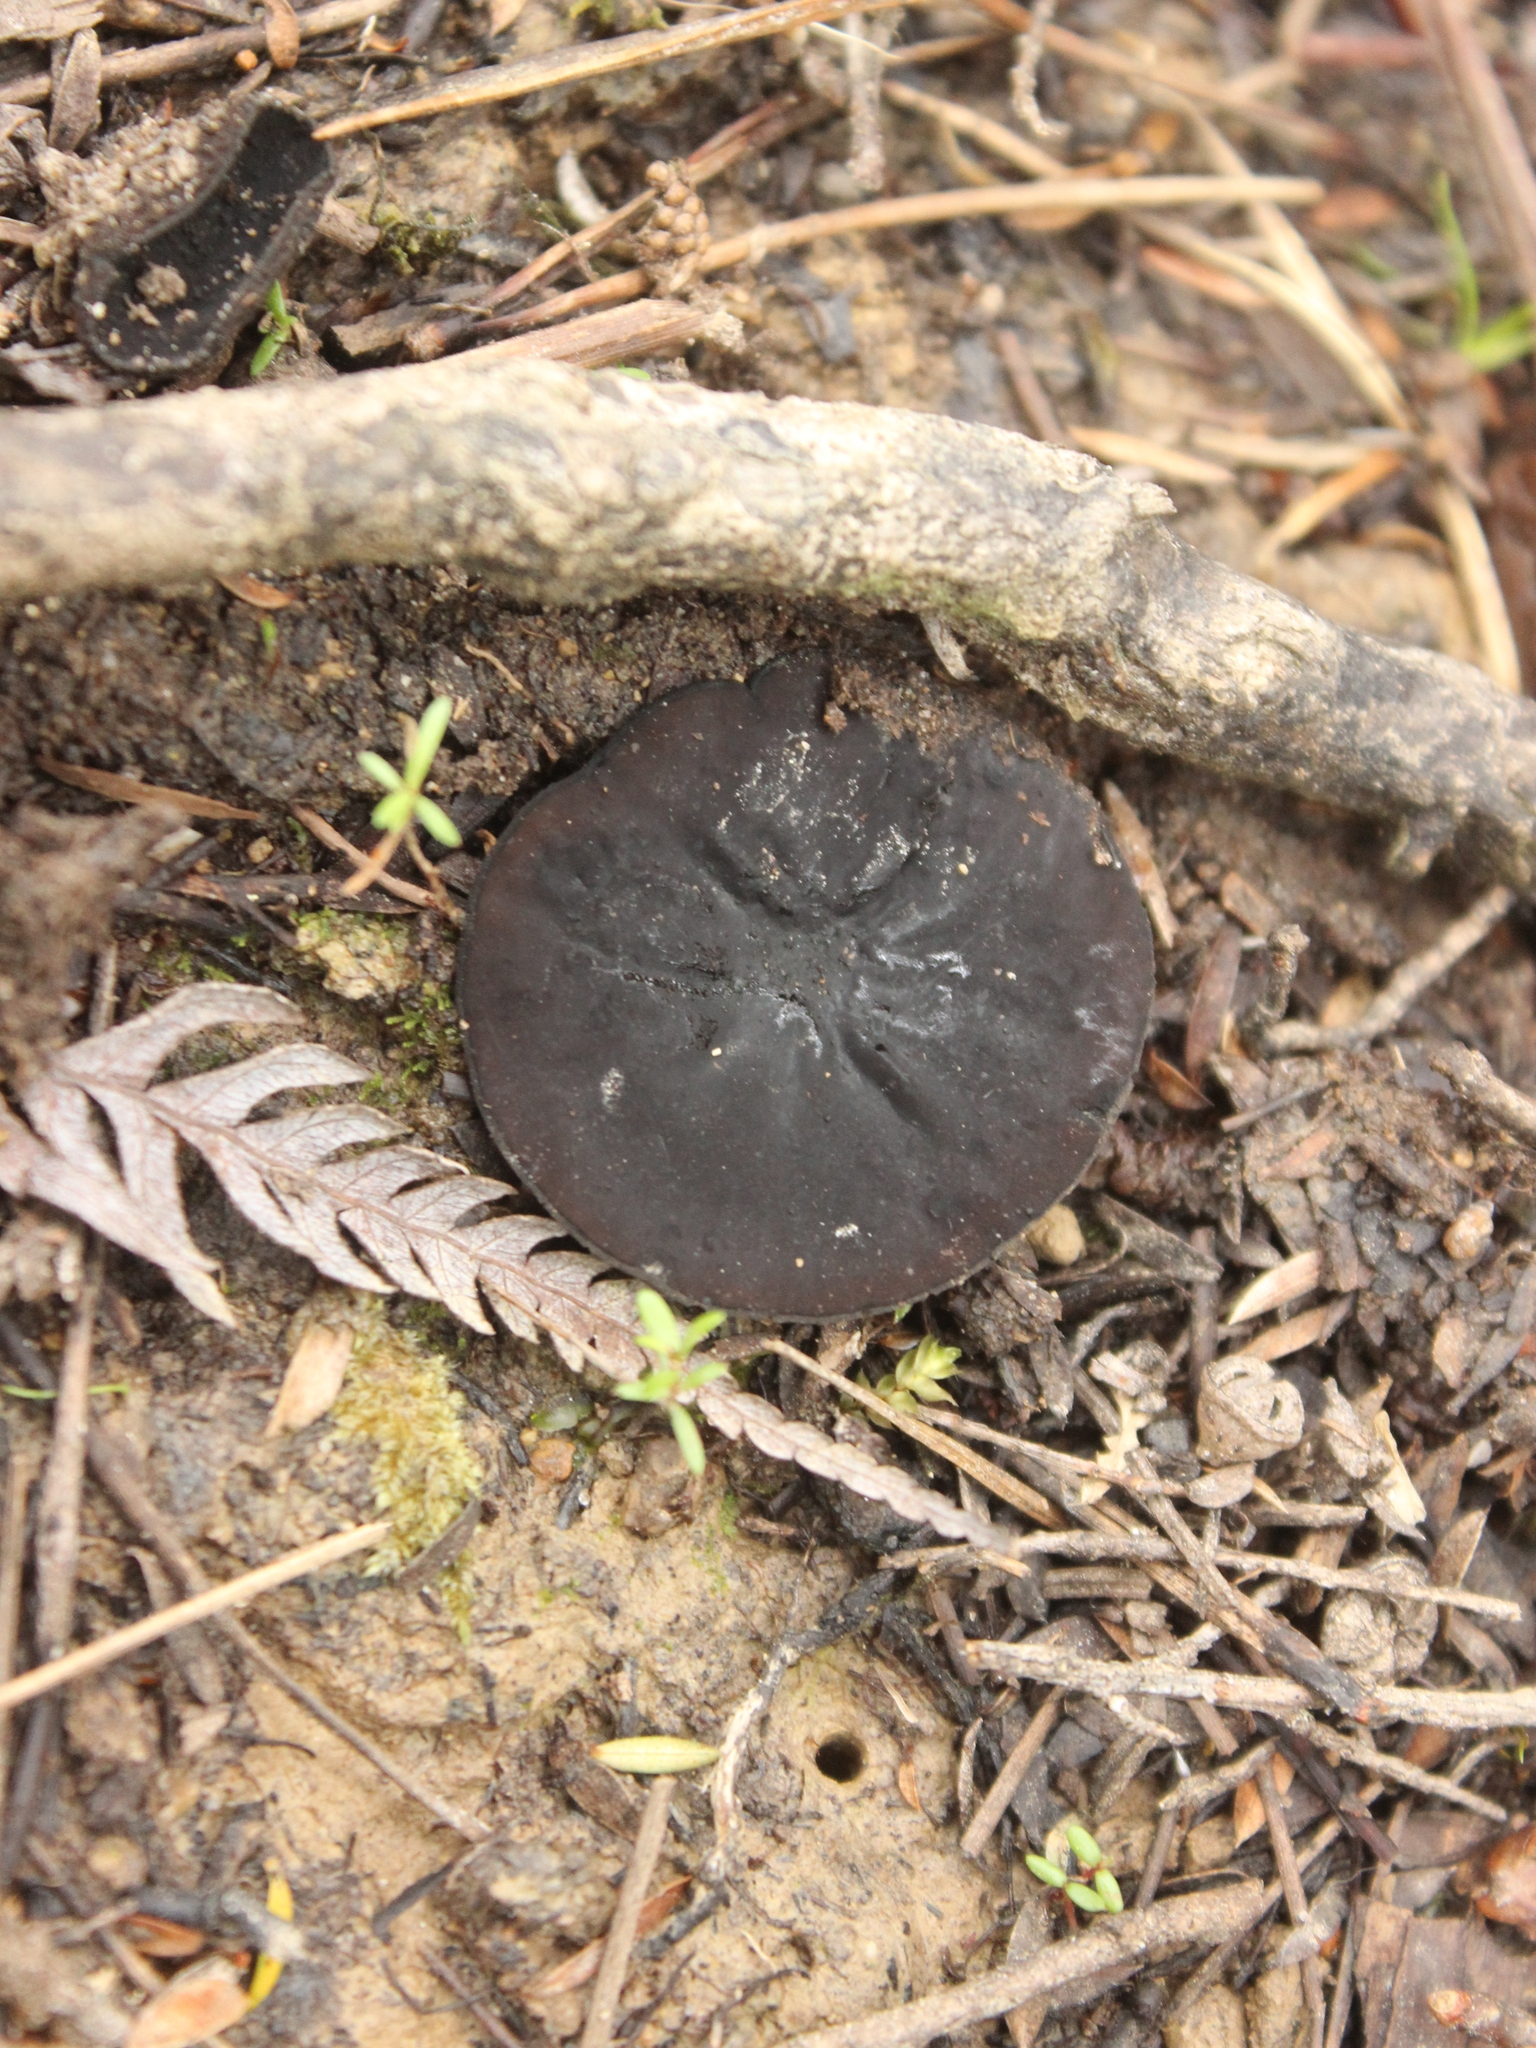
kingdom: Fungi
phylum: Ascomycota
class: Pezizomycetes
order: Pezizales
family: Sarcosomataceae
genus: Plectania
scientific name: Plectania rhytidia
